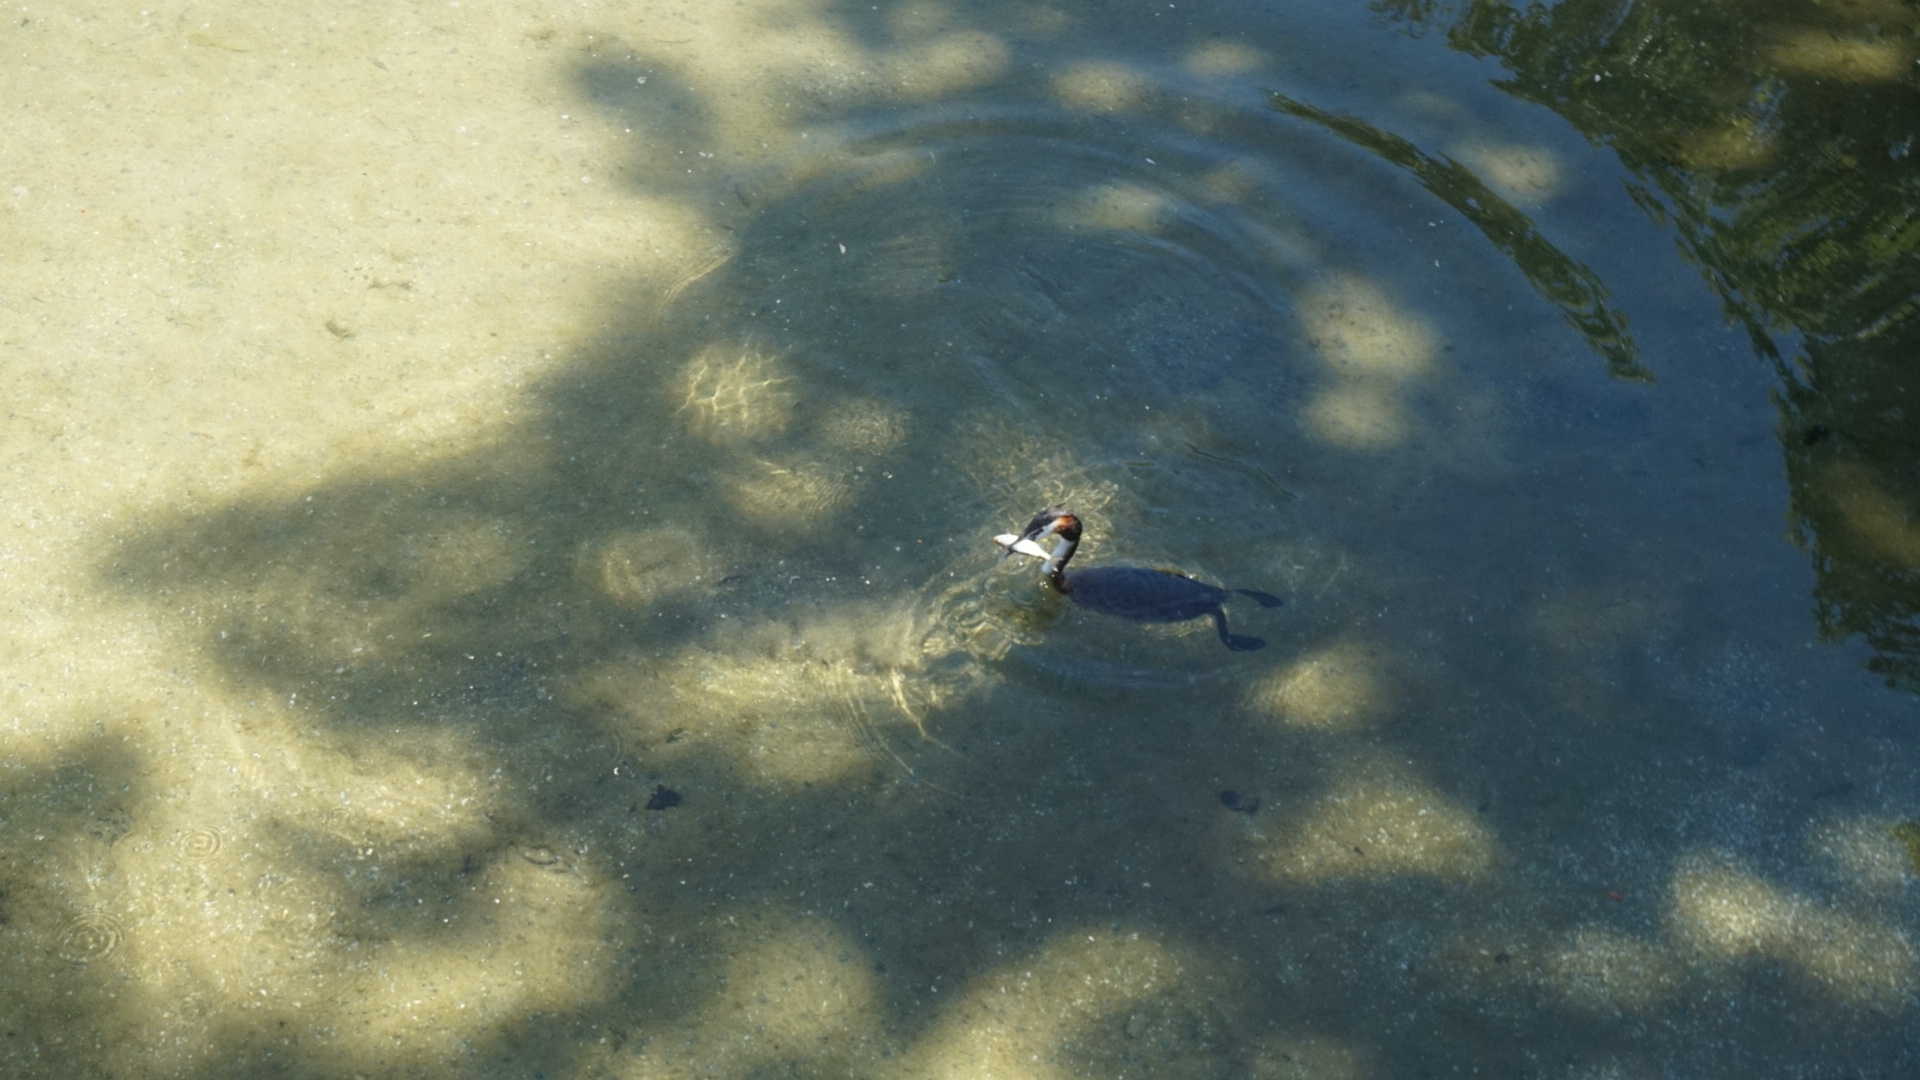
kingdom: Animalia
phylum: Chordata
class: Aves
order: Podicipediformes
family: Podicipedidae
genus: Podiceps
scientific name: Podiceps cristatus
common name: Great crested grebe
